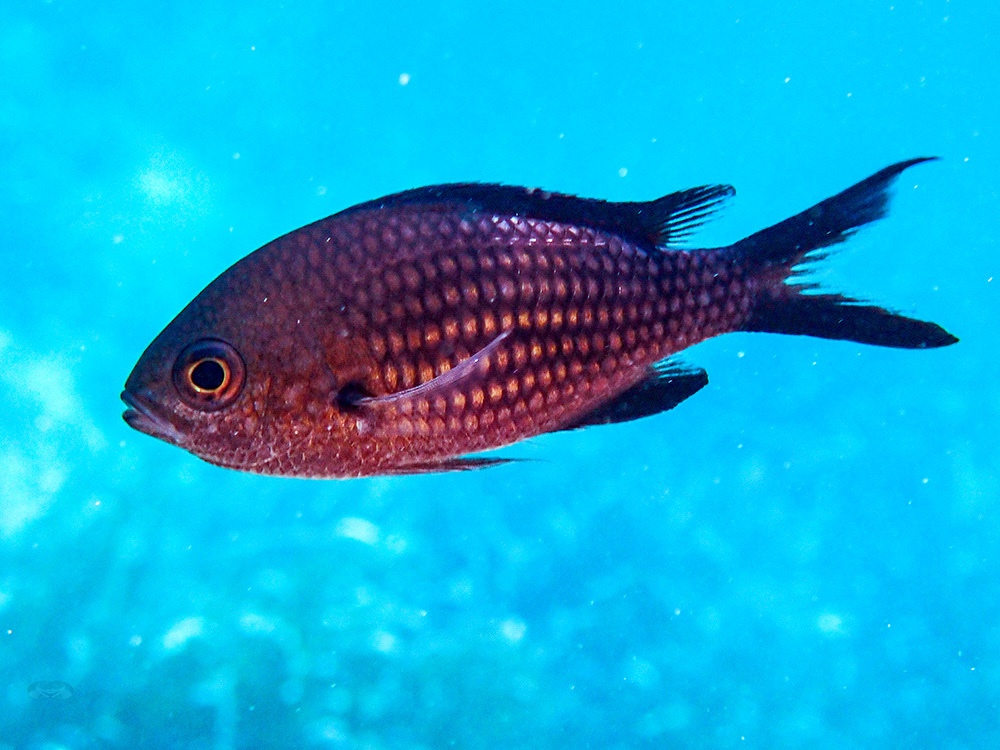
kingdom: Animalia
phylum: Chordata
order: Perciformes
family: Pomacentridae
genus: Chromis
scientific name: Chromis chromis
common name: Damselfish
